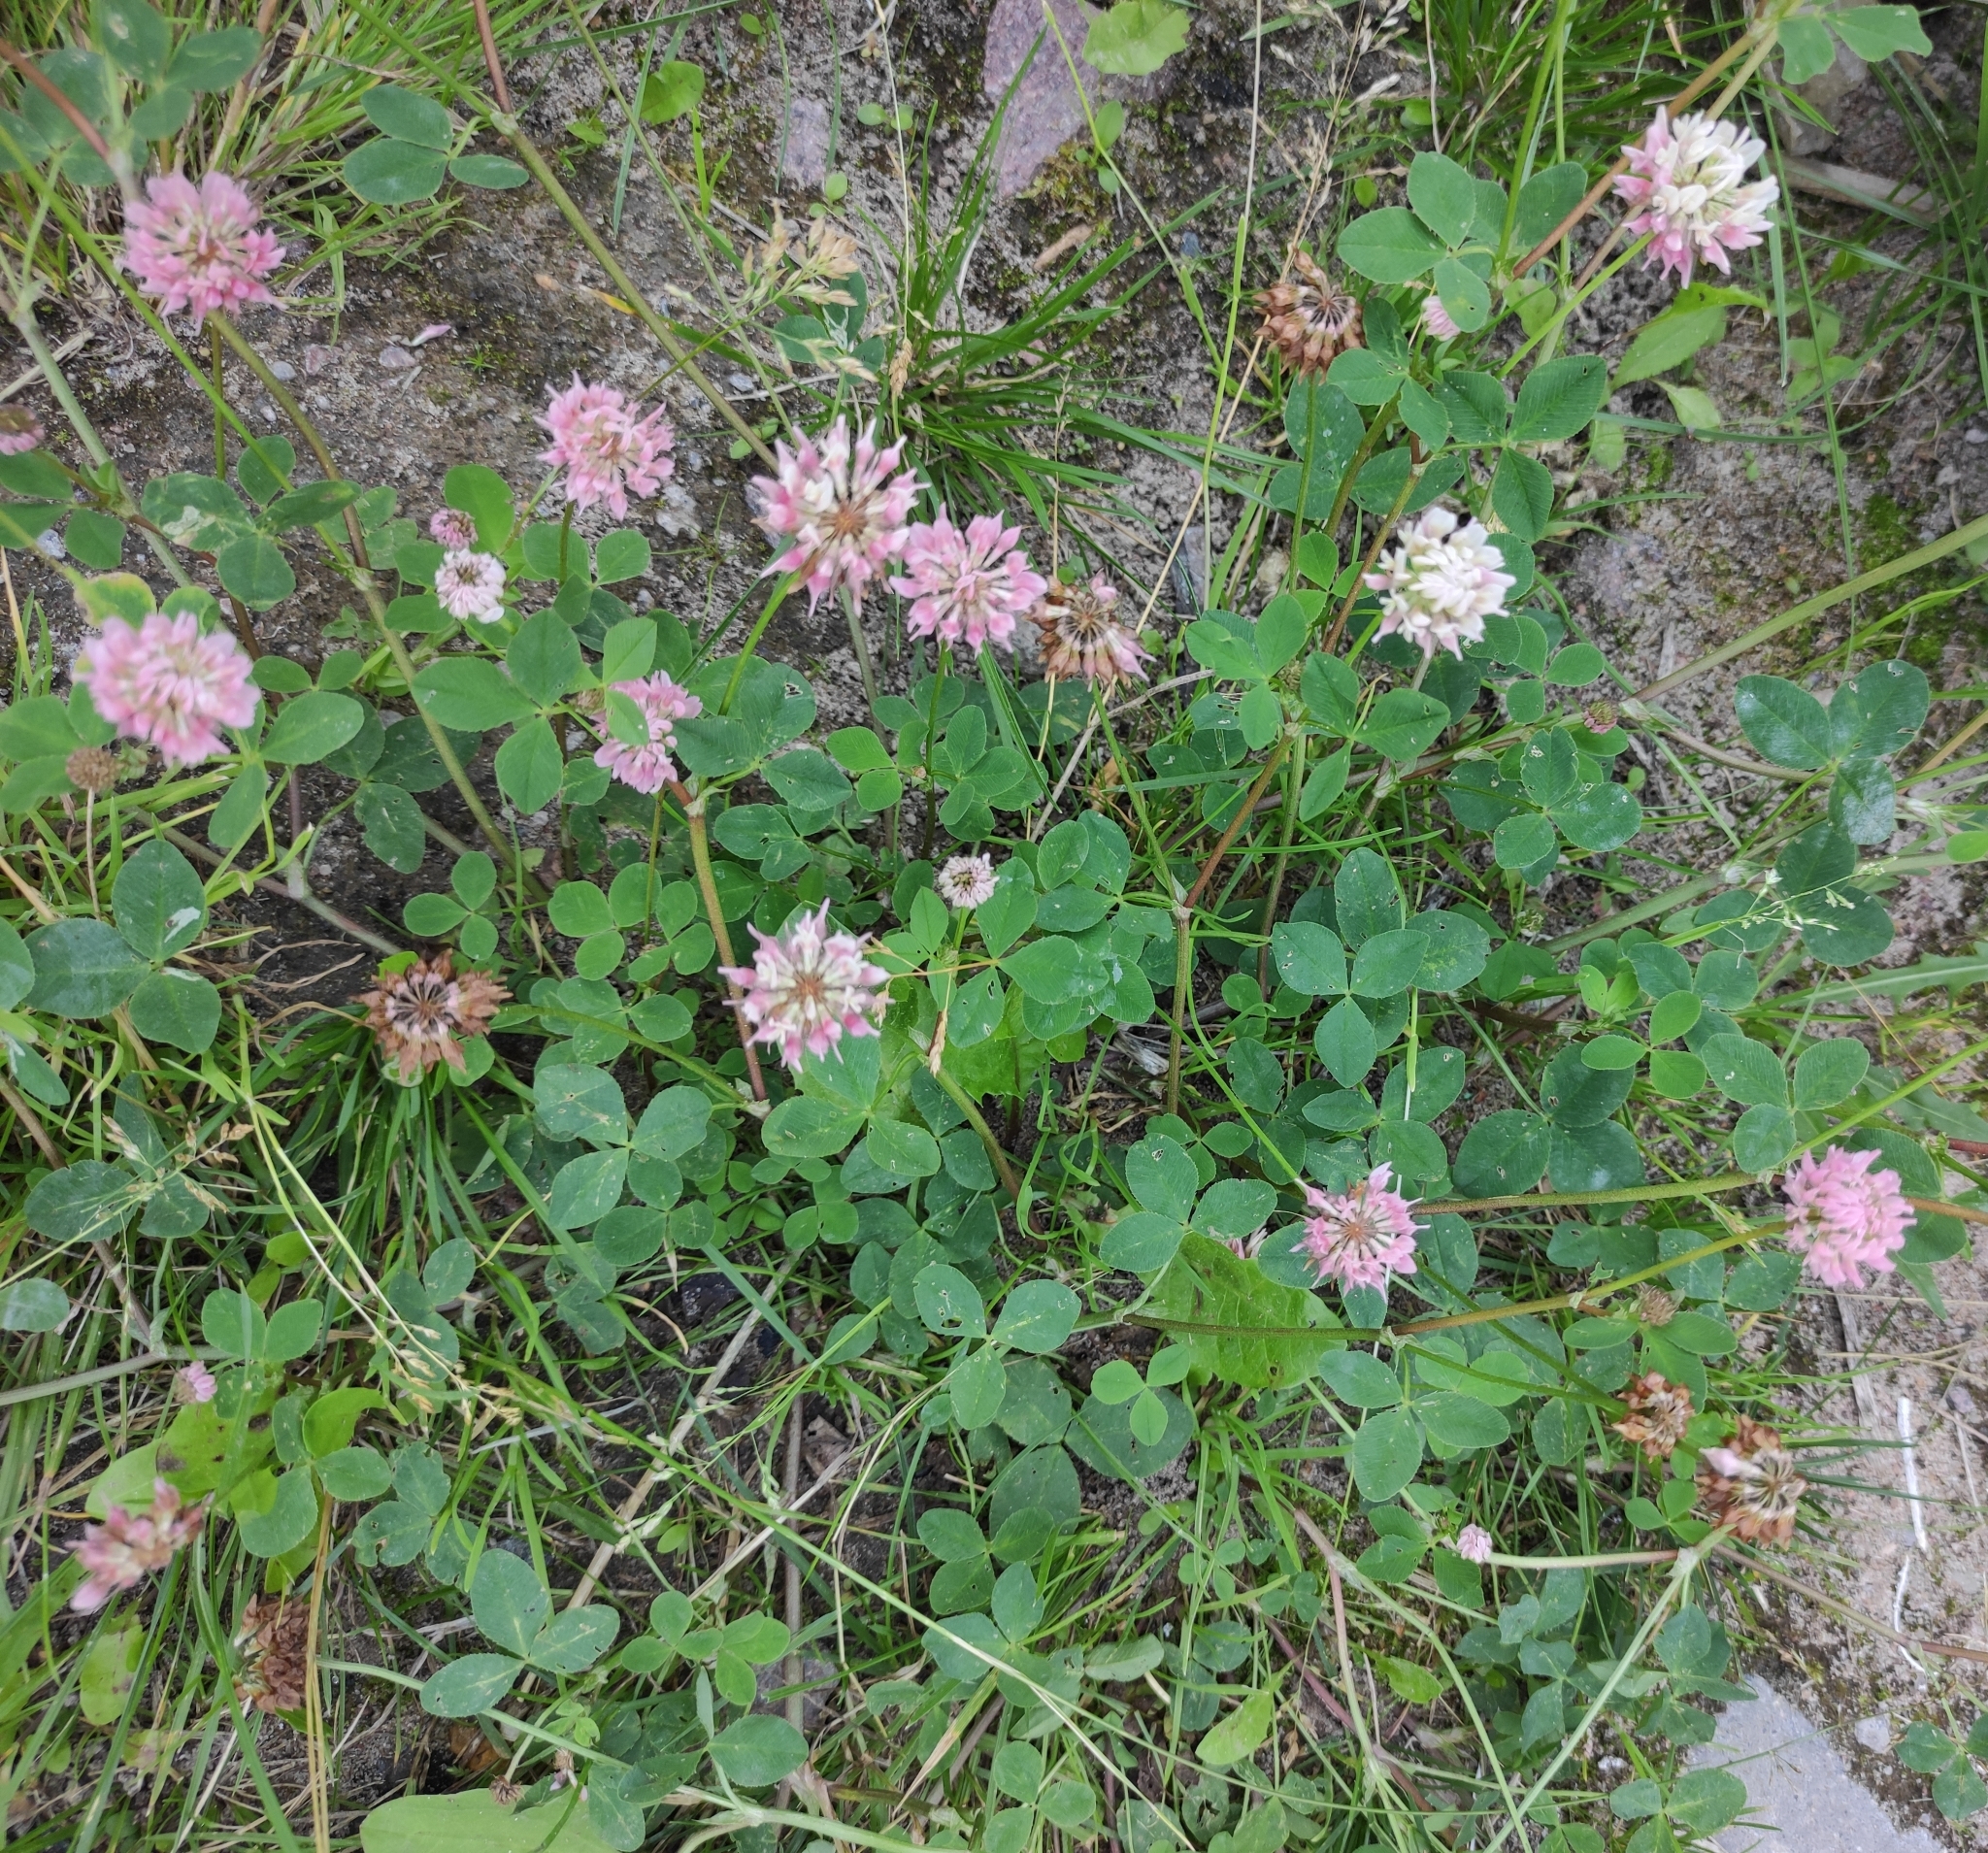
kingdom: Plantae
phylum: Tracheophyta
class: Magnoliopsida
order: Fabales
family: Fabaceae
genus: Trifolium
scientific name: Trifolium hybridum
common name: Alsike clover
